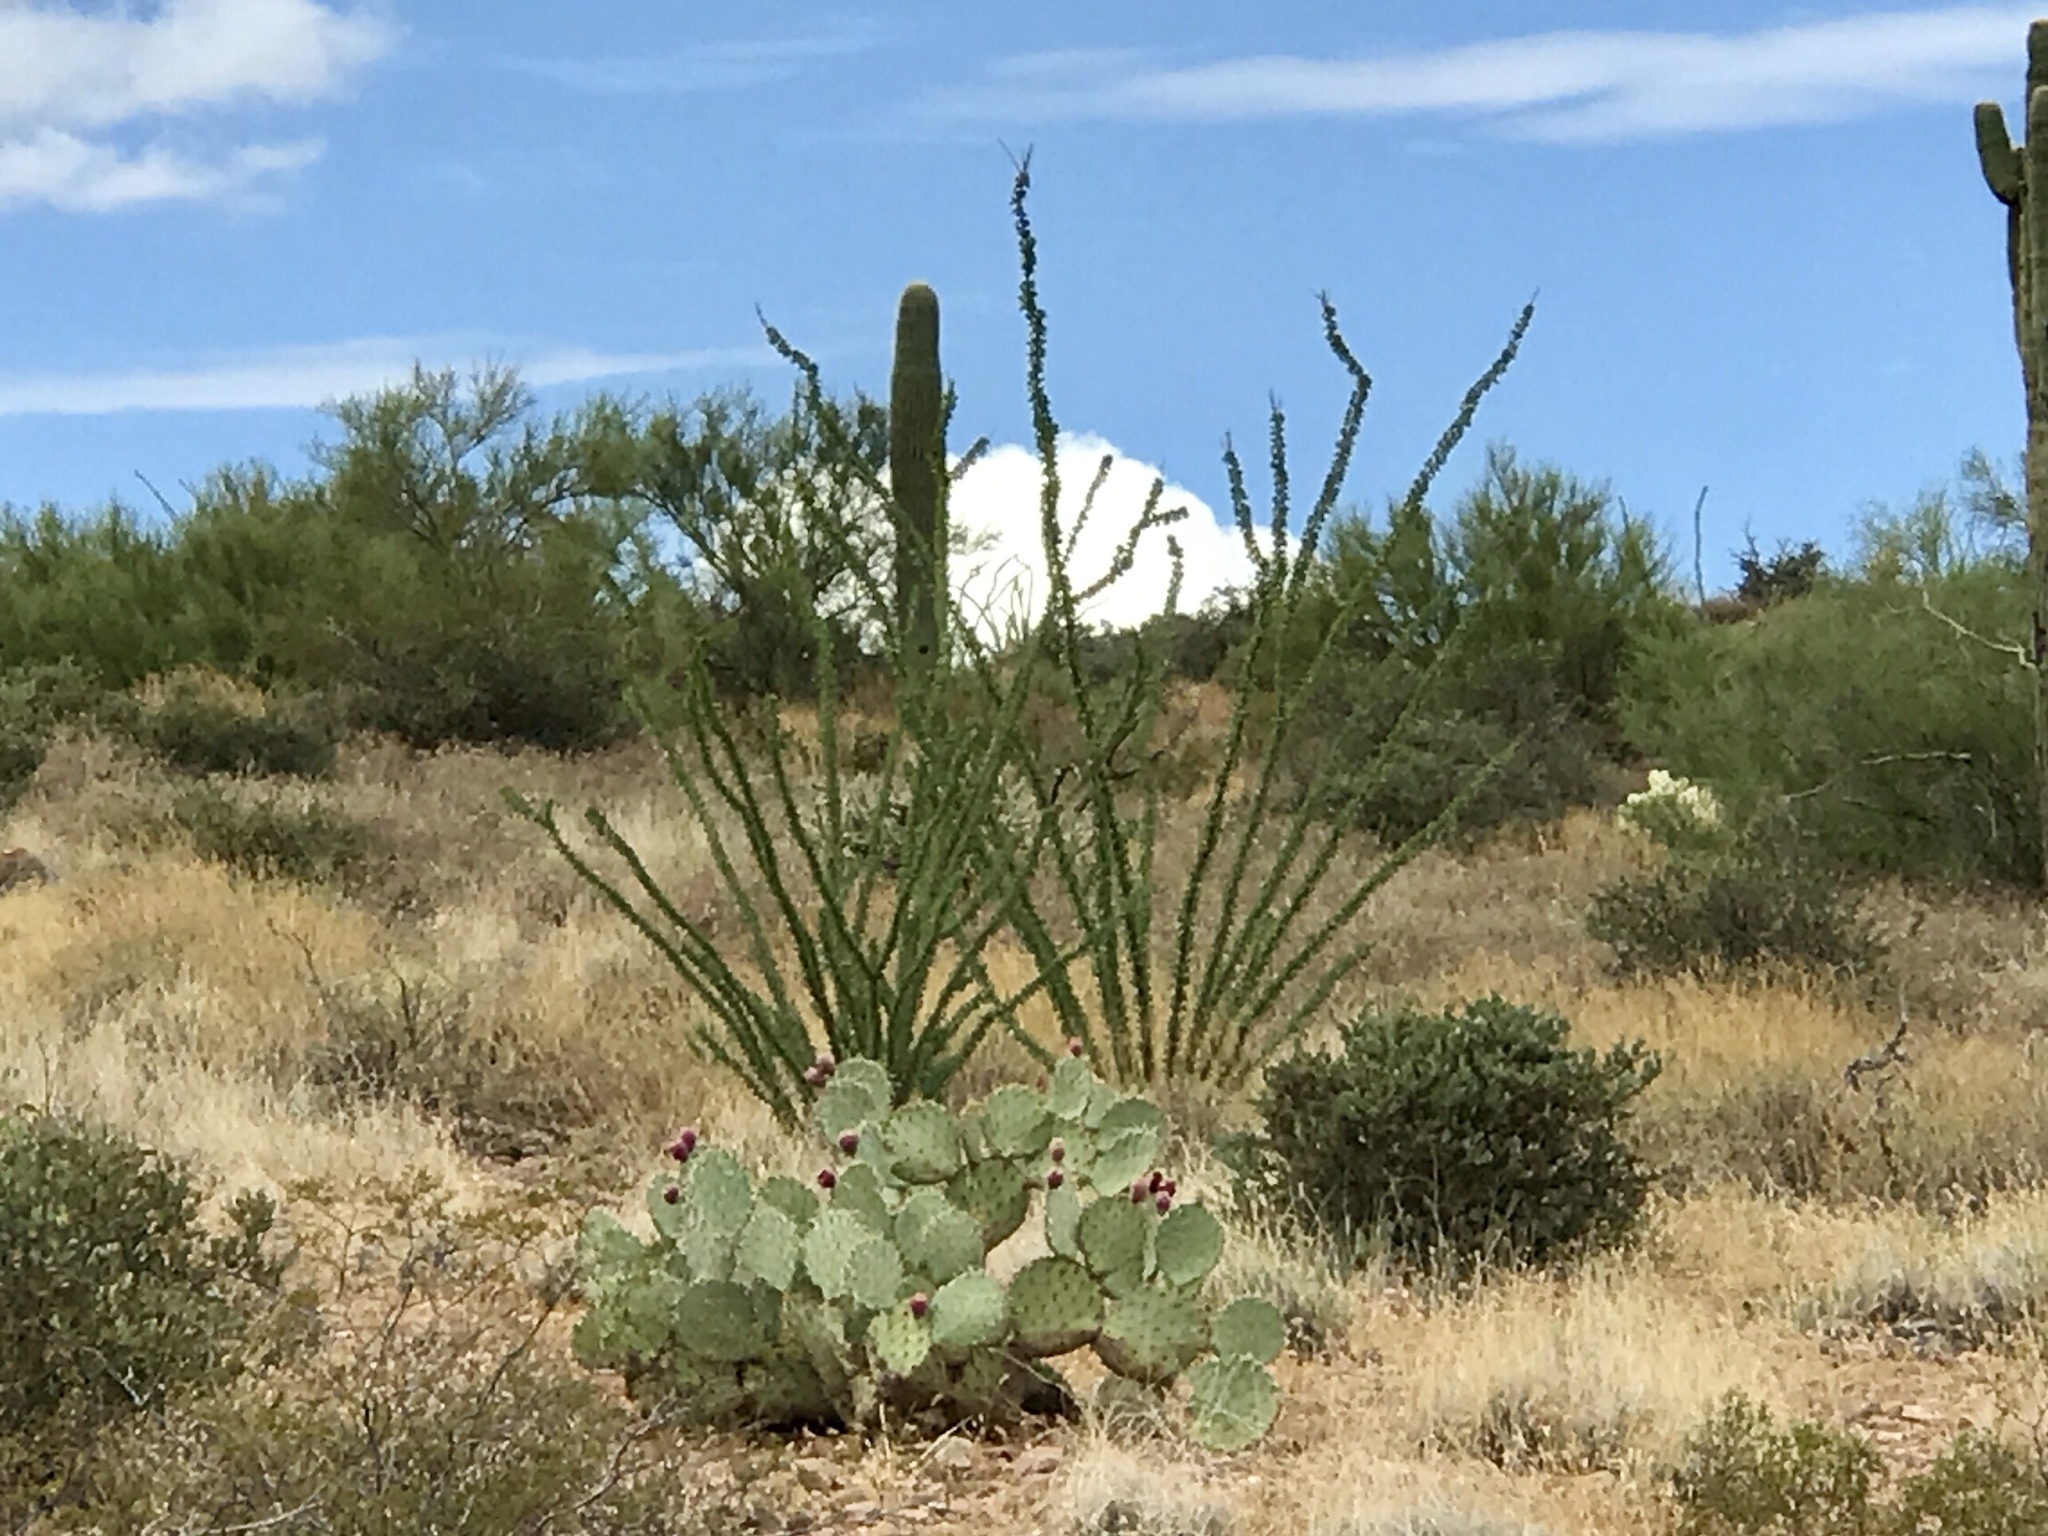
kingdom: Plantae
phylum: Tracheophyta
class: Magnoliopsida
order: Ericales
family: Fouquieriaceae
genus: Fouquieria
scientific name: Fouquieria splendens
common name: Vine-cactus
